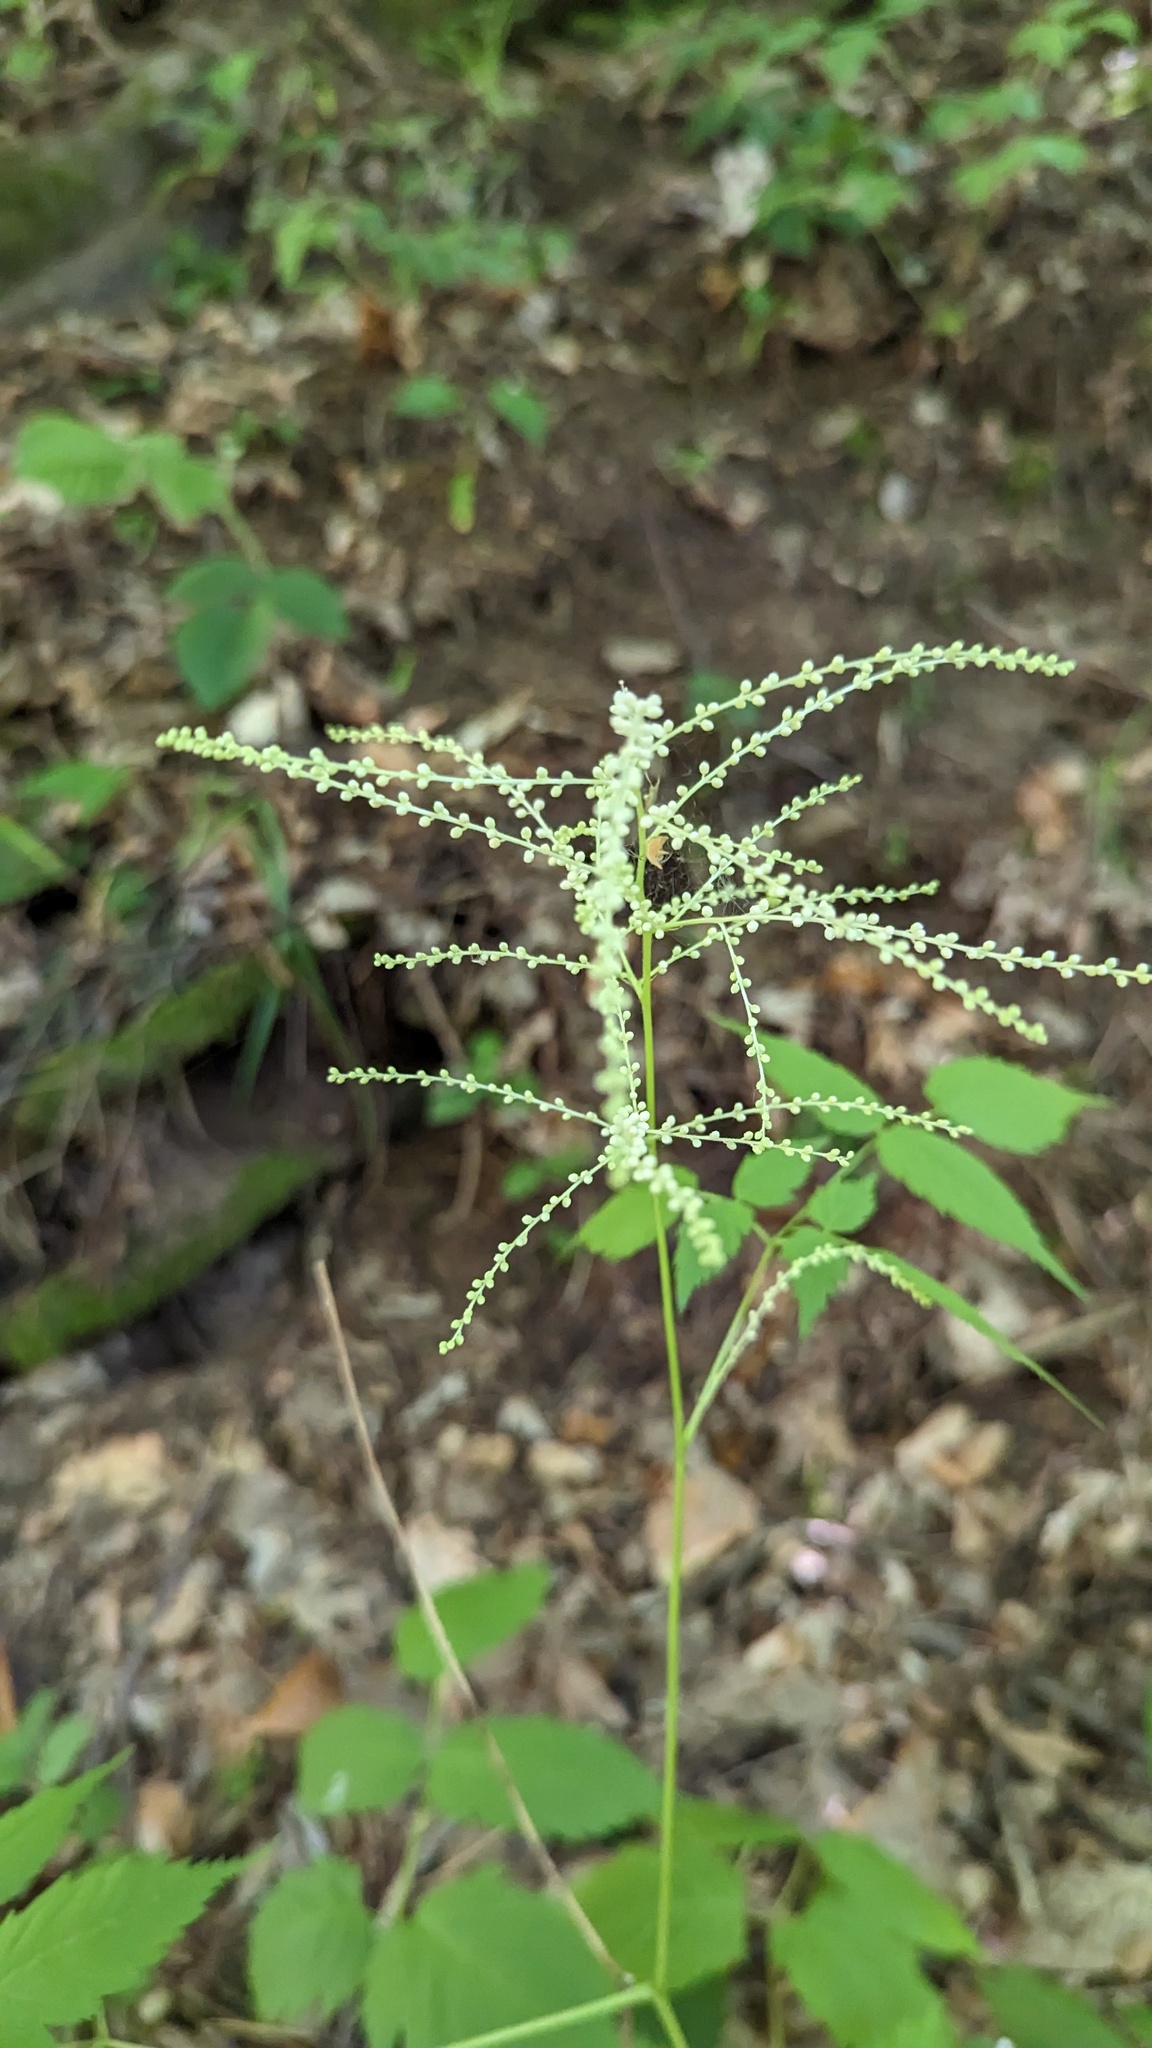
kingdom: Plantae
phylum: Tracheophyta
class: Magnoliopsida
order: Rosales
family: Rosaceae
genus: Aruncus
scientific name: Aruncus dioicus
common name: Buck's-beard
